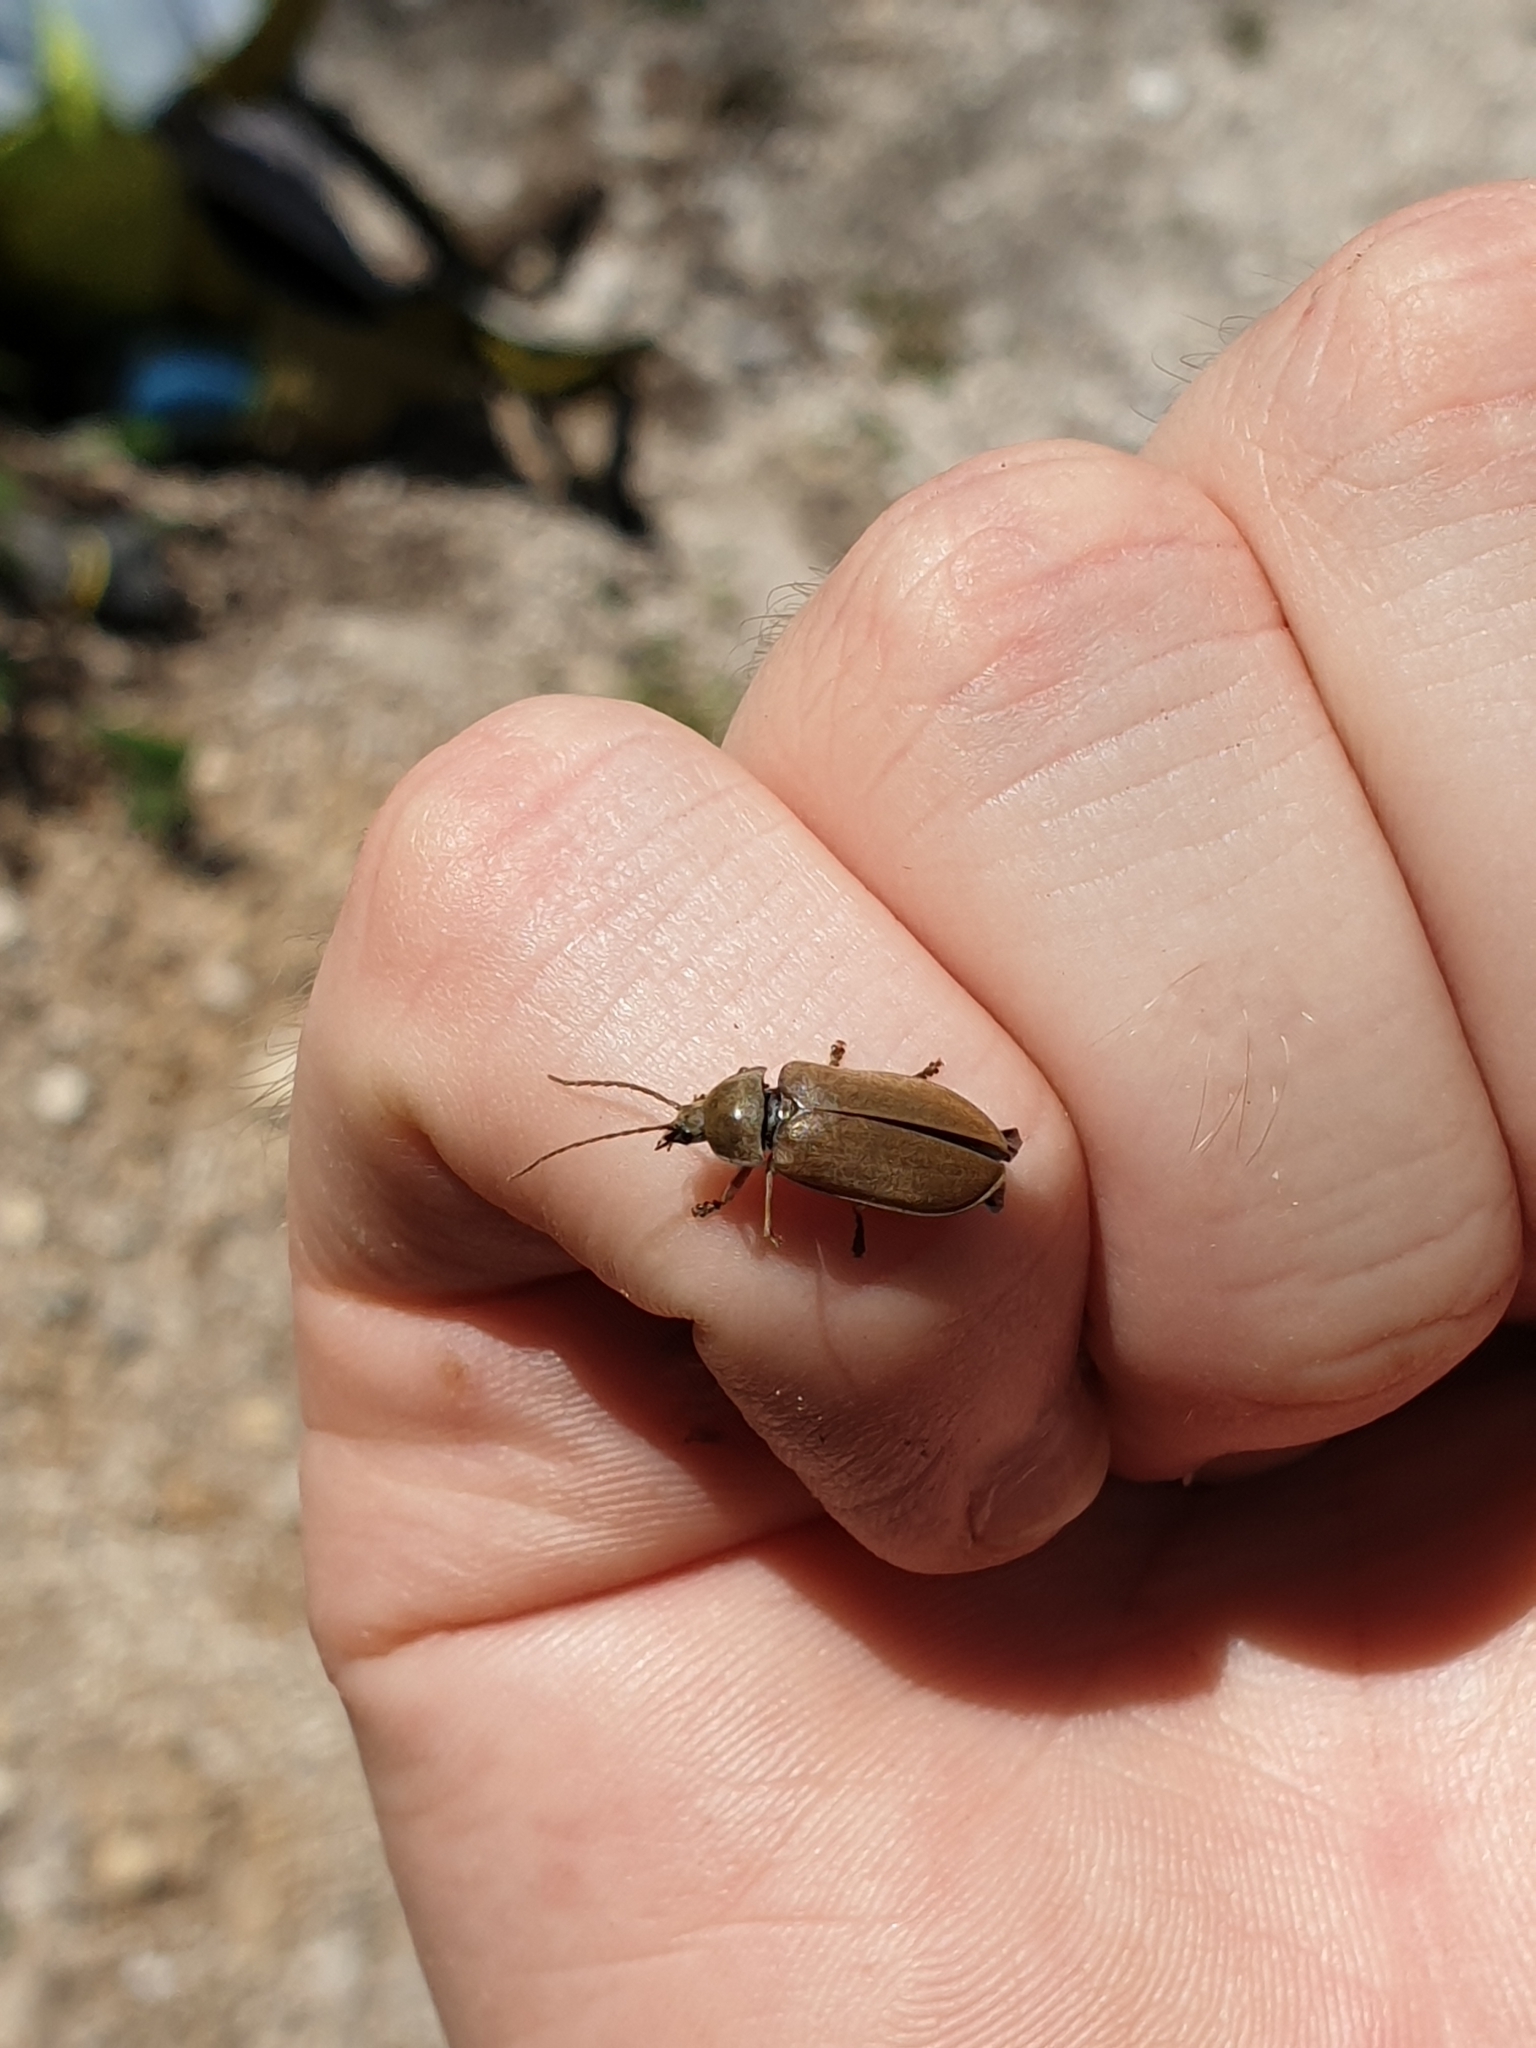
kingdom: Animalia
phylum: Arthropoda
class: Insecta
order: Coleoptera
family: Dascillidae
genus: Dascillus
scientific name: Dascillus cervinus
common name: Orchid beetle
